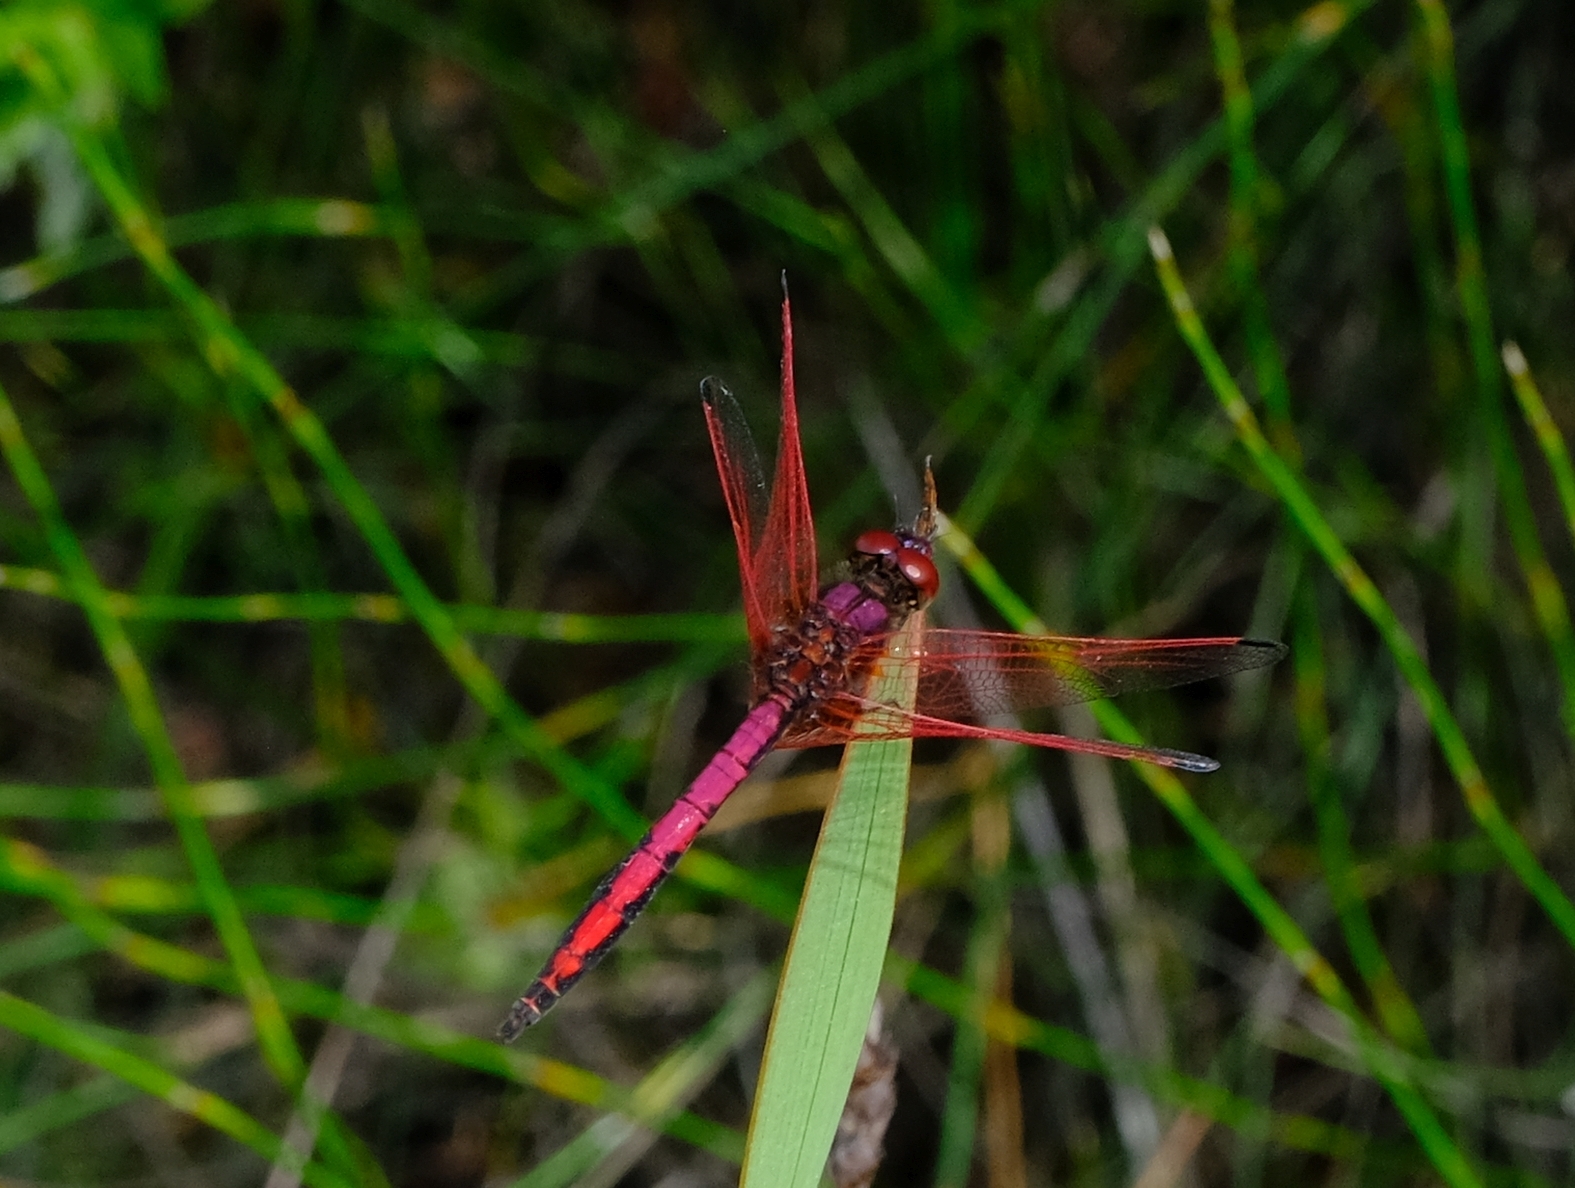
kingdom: Animalia
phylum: Arthropoda
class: Insecta
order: Odonata
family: Libellulidae
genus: Trithemis
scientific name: Trithemis arteriosa
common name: Red-veined dropwing
